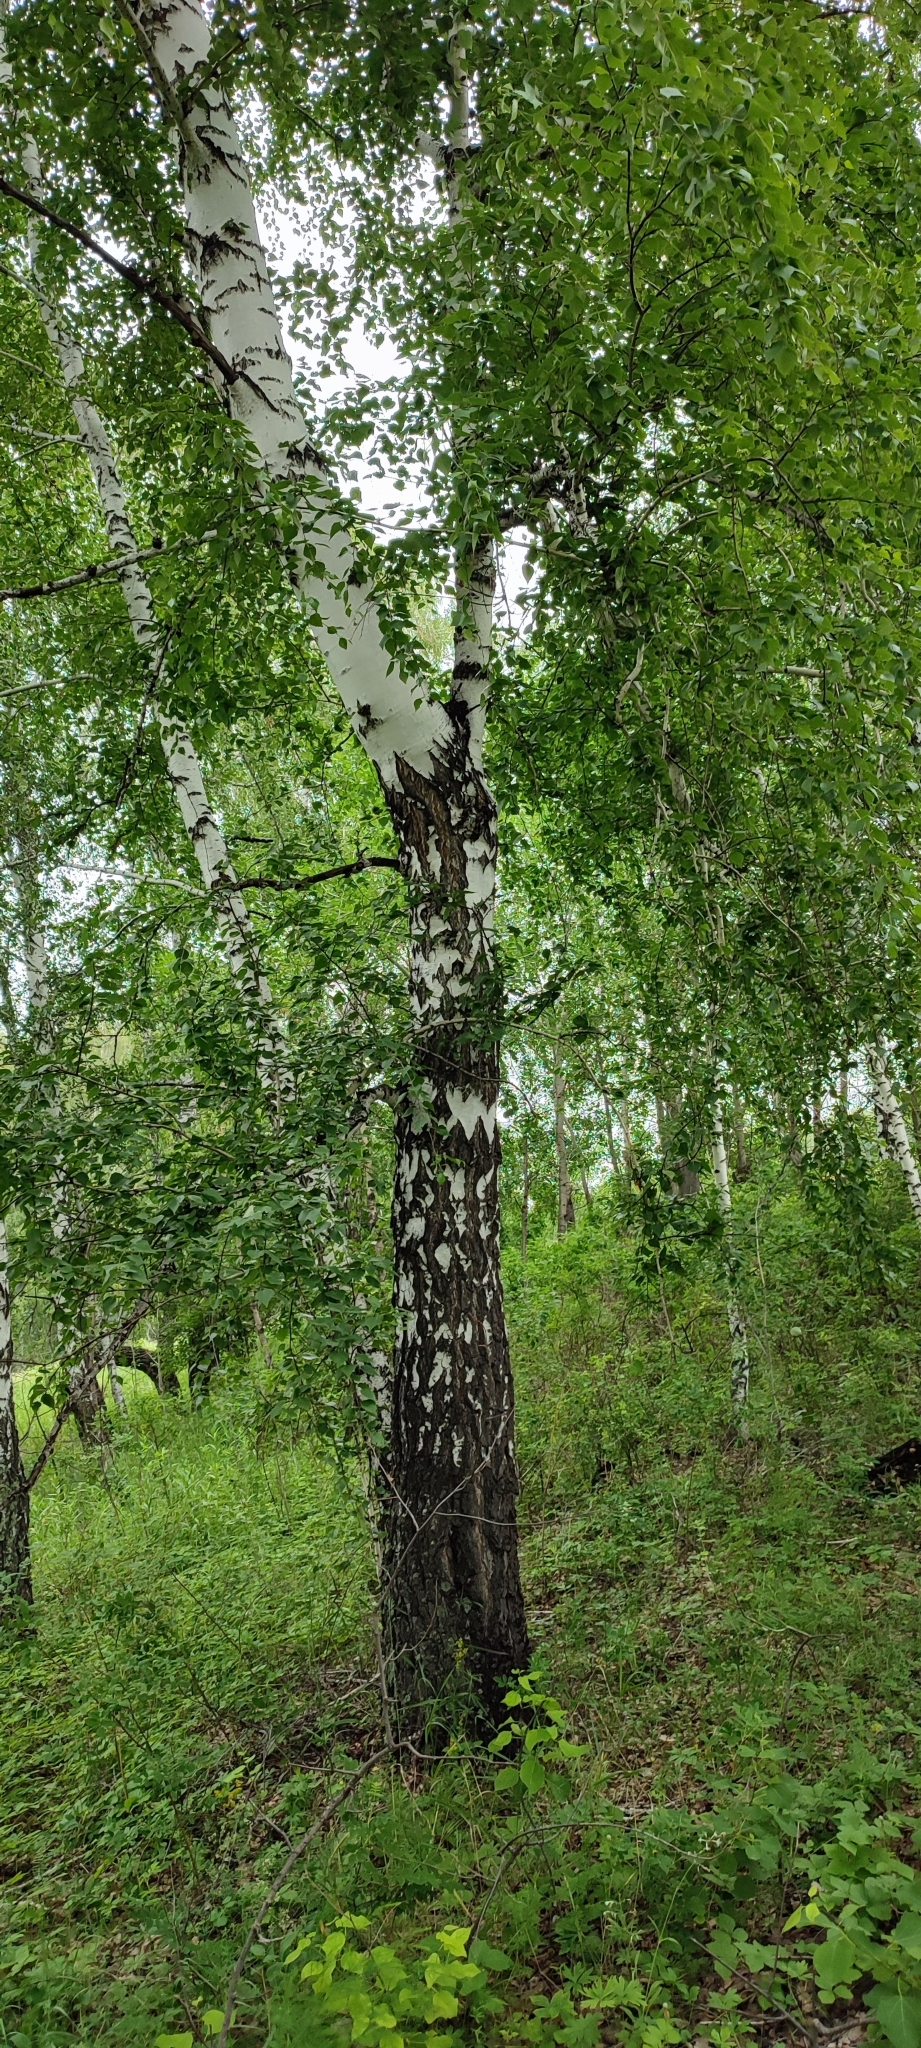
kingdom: Plantae
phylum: Tracheophyta
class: Magnoliopsida
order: Fagales
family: Betulaceae
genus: Betula
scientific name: Betula pendula
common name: Silver birch
